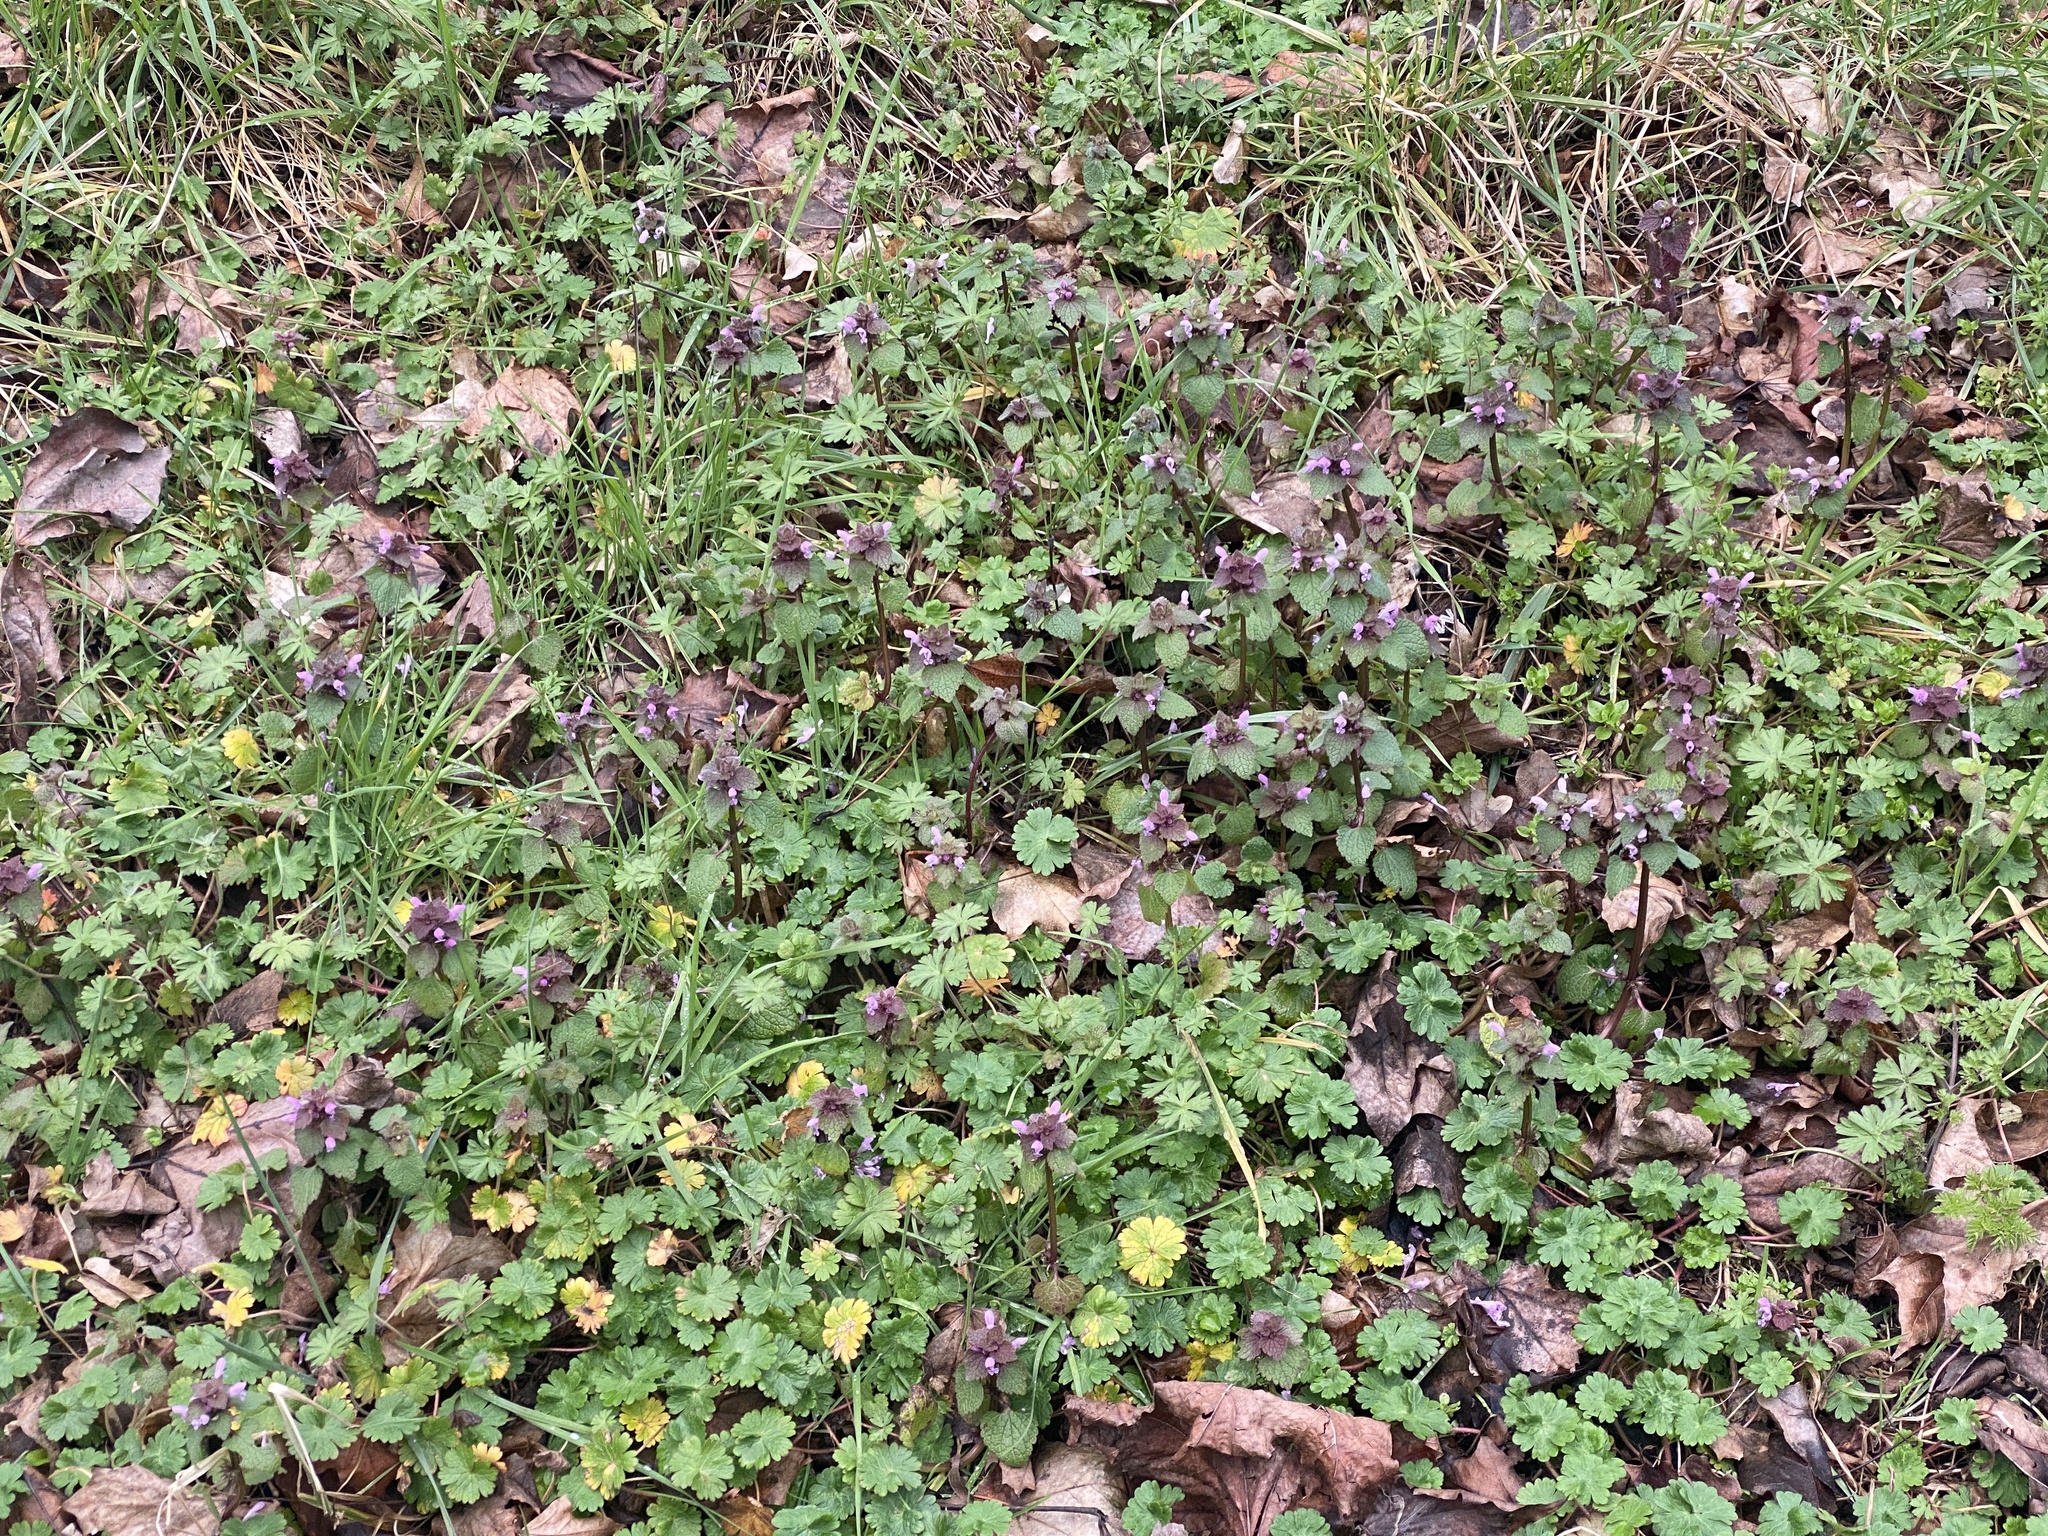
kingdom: Plantae
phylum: Tracheophyta
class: Magnoliopsida
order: Lamiales
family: Lamiaceae
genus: Lamium
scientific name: Lamium purpureum
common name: Red dead-nettle
